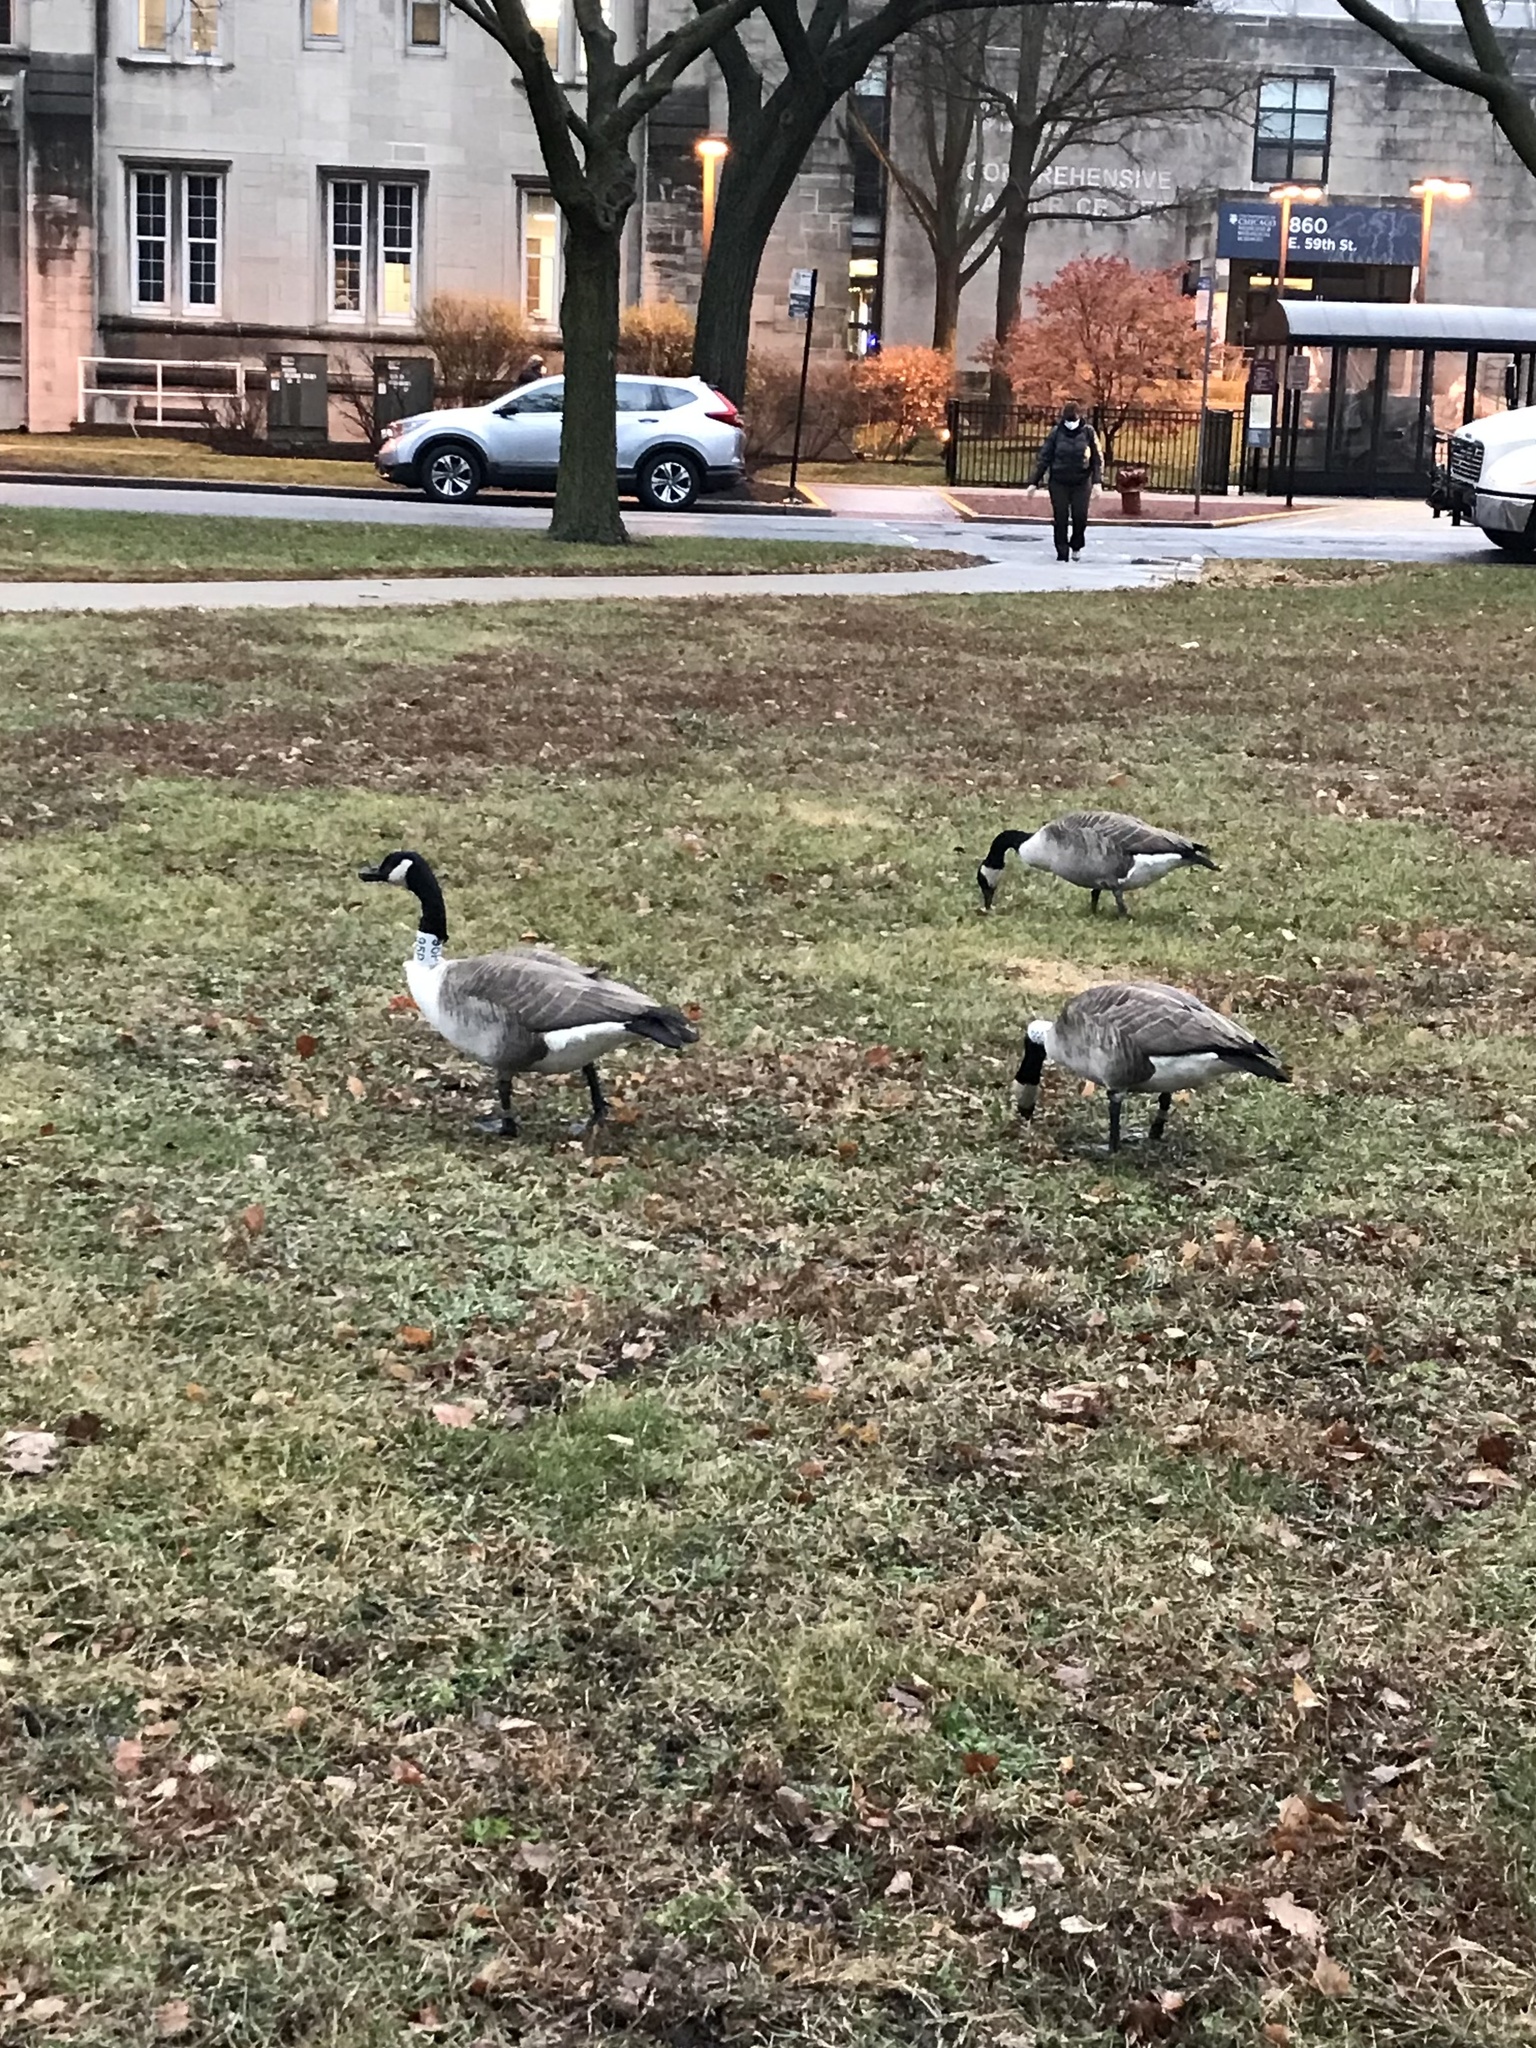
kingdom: Animalia
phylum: Chordata
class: Aves
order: Anseriformes
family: Anatidae
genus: Branta
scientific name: Branta canadensis
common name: Canada goose
